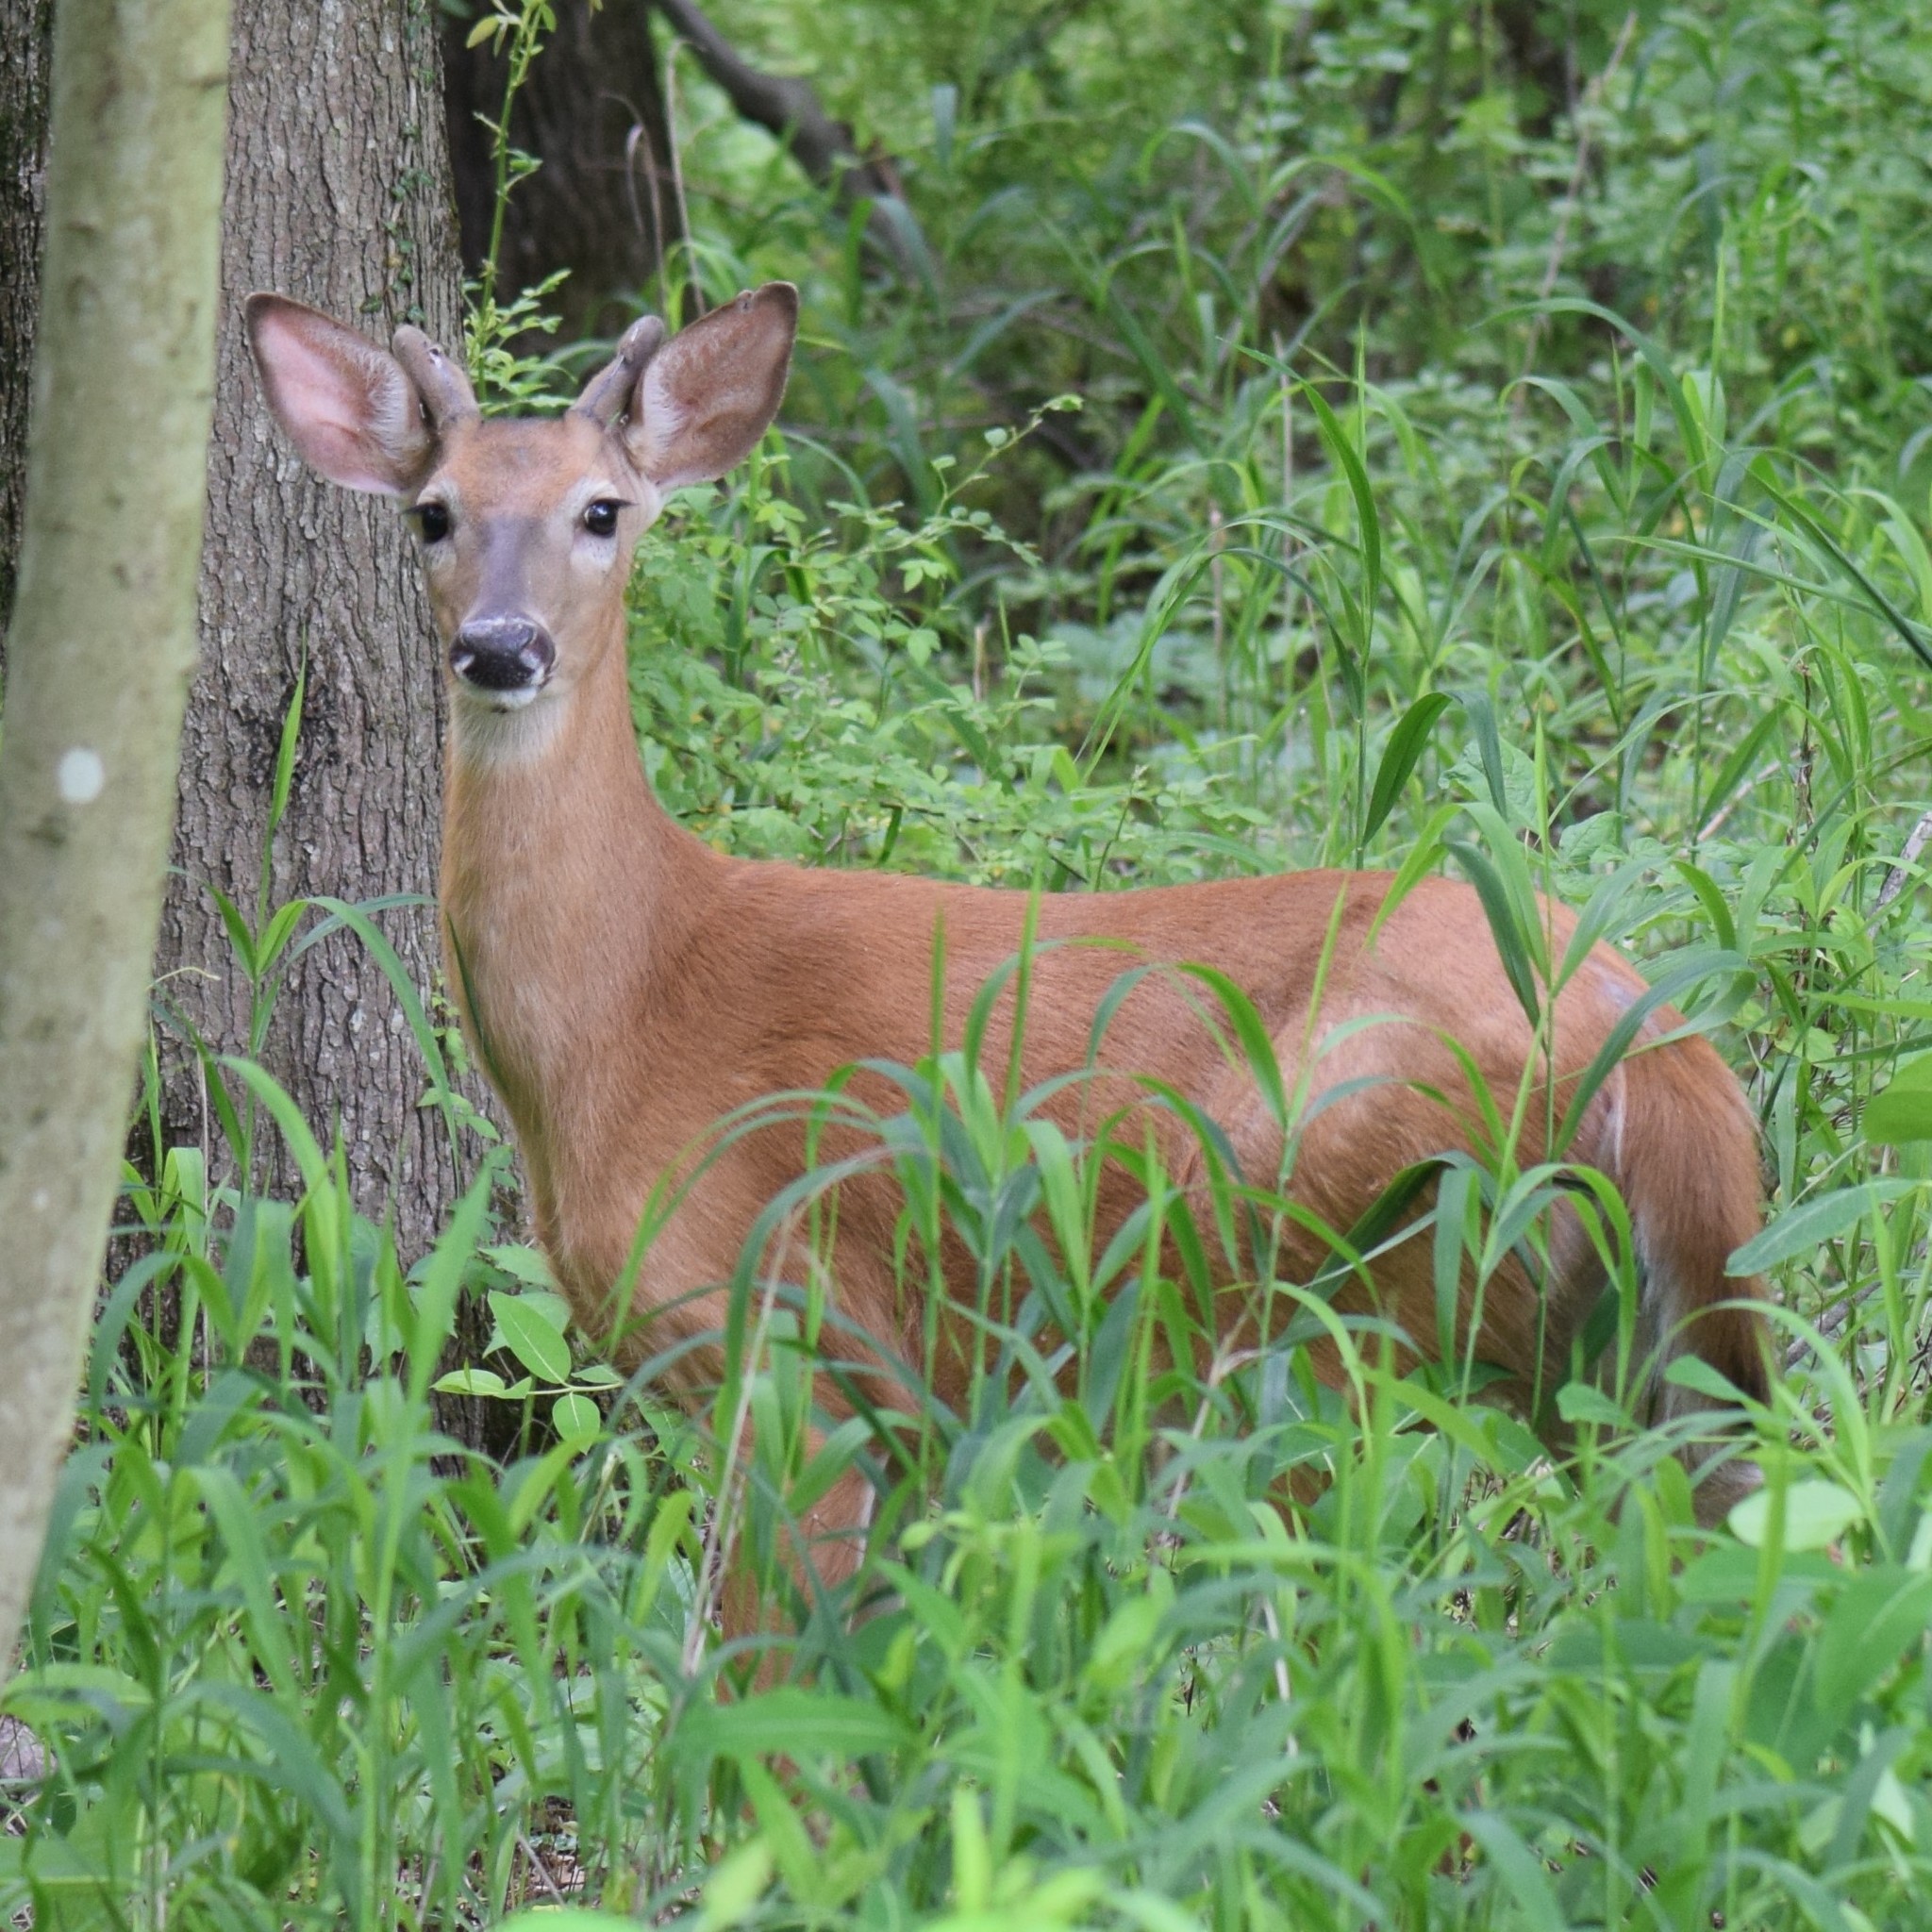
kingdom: Animalia
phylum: Chordata
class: Mammalia
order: Artiodactyla
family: Cervidae
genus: Odocoileus
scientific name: Odocoileus virginianus
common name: White-tailed deer
